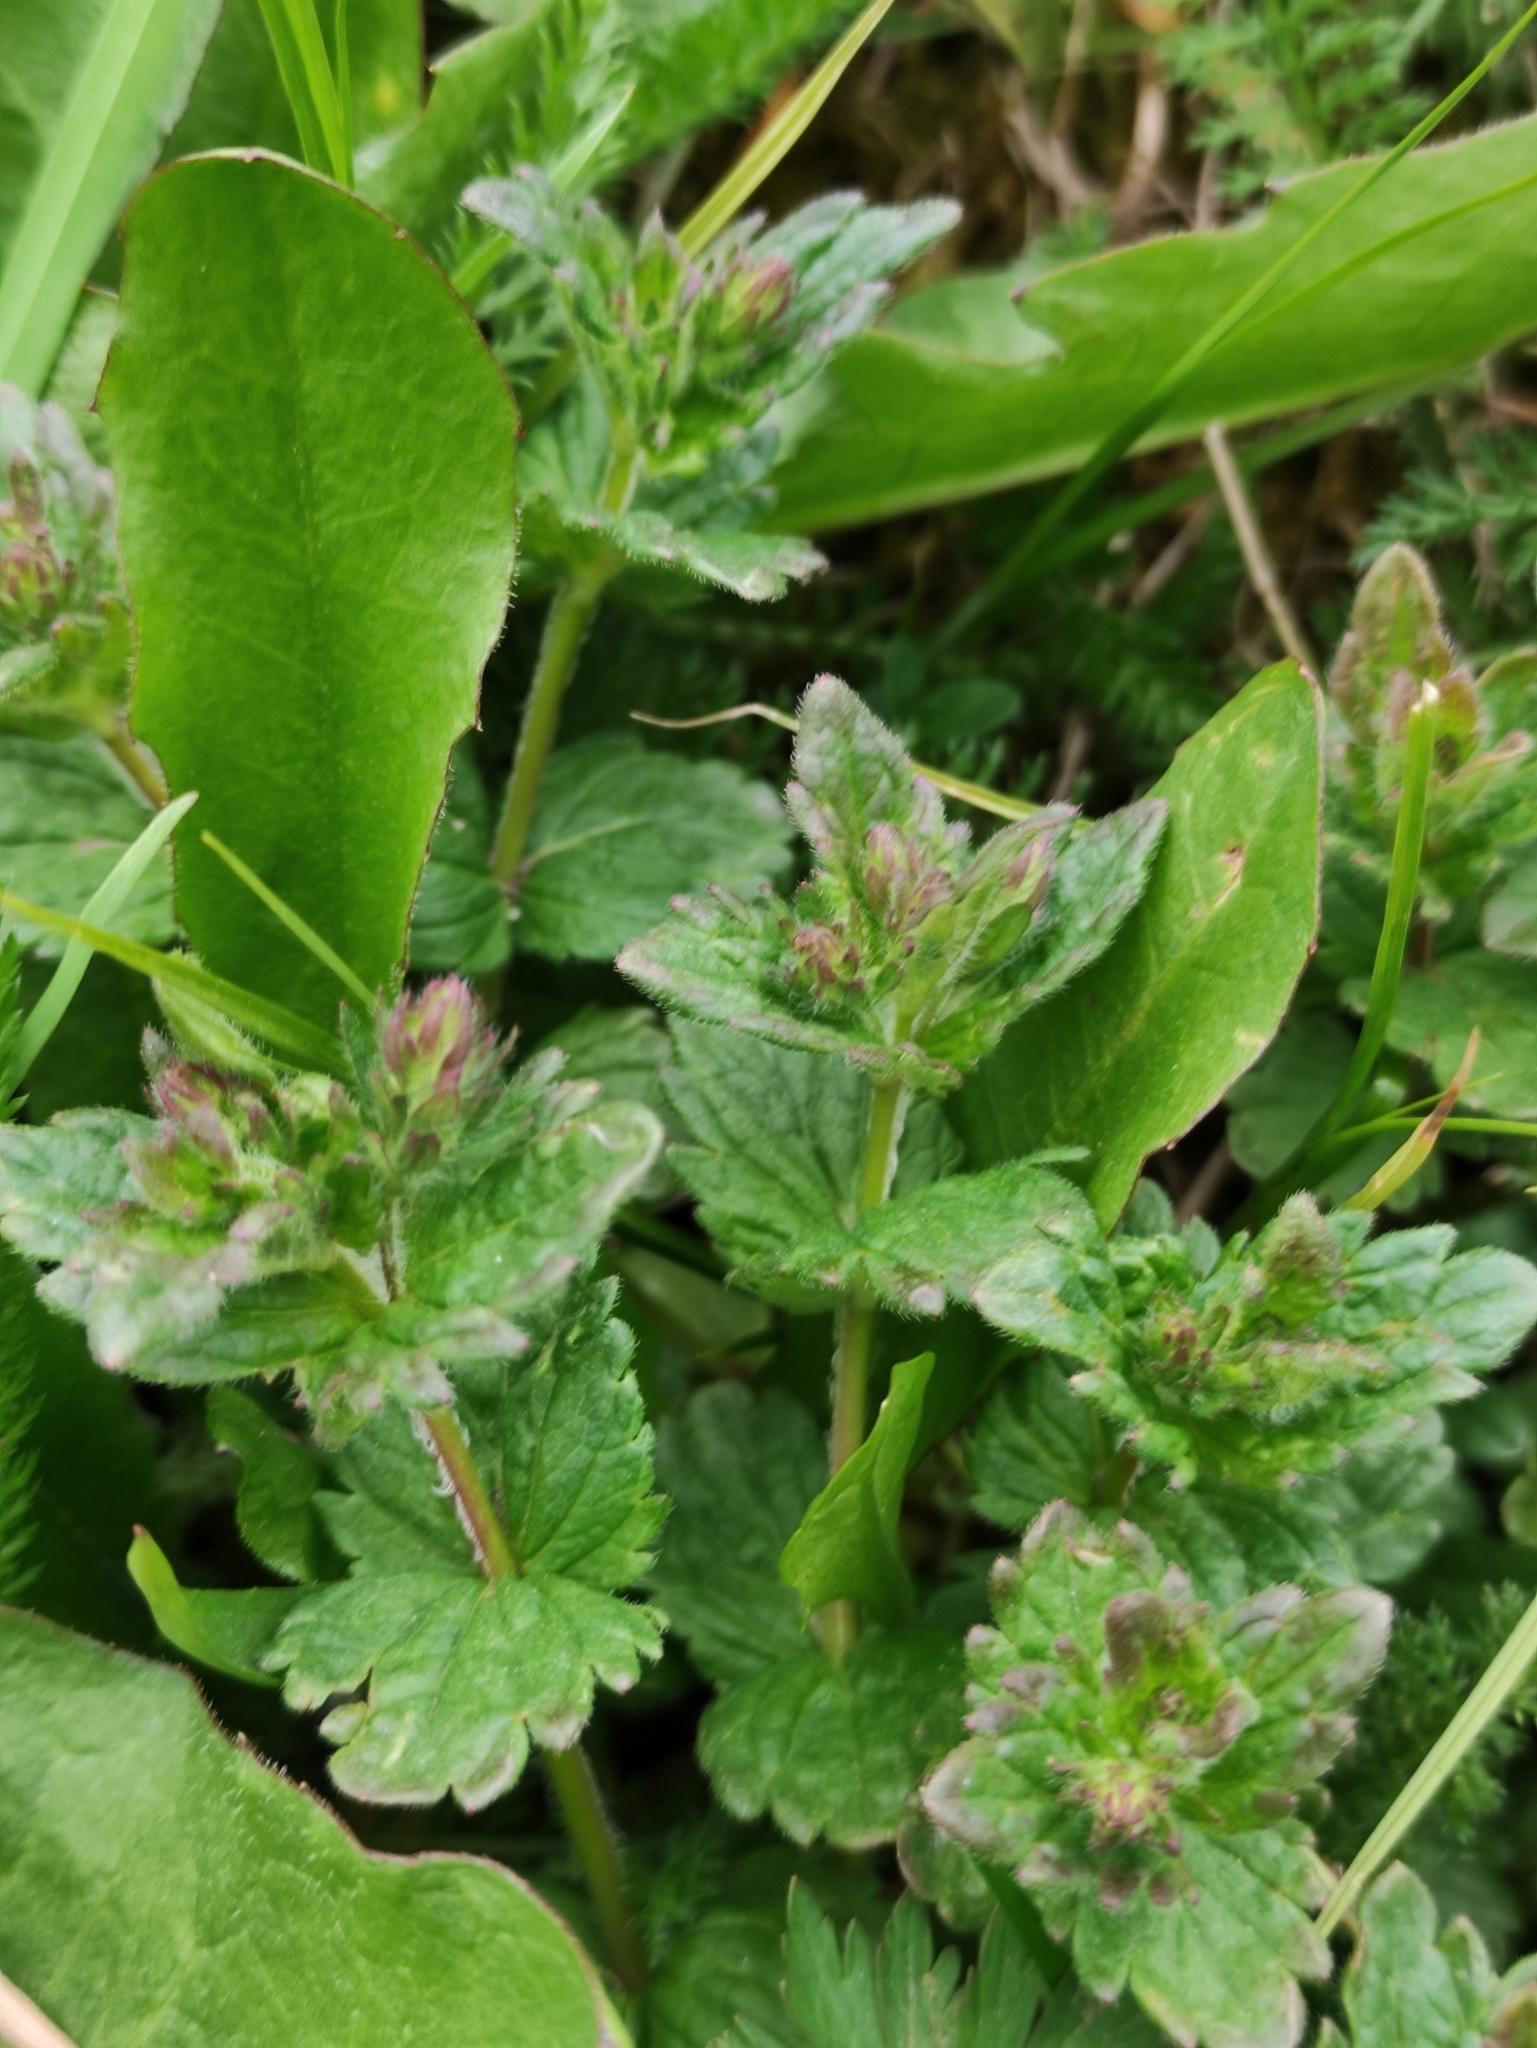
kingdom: Plantae
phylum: Tracheophyta
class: Magnoliopsida
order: Lamiales
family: Plantaginaceae
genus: Veronica
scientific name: Veronica chamaedrys
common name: Germander speedwell
